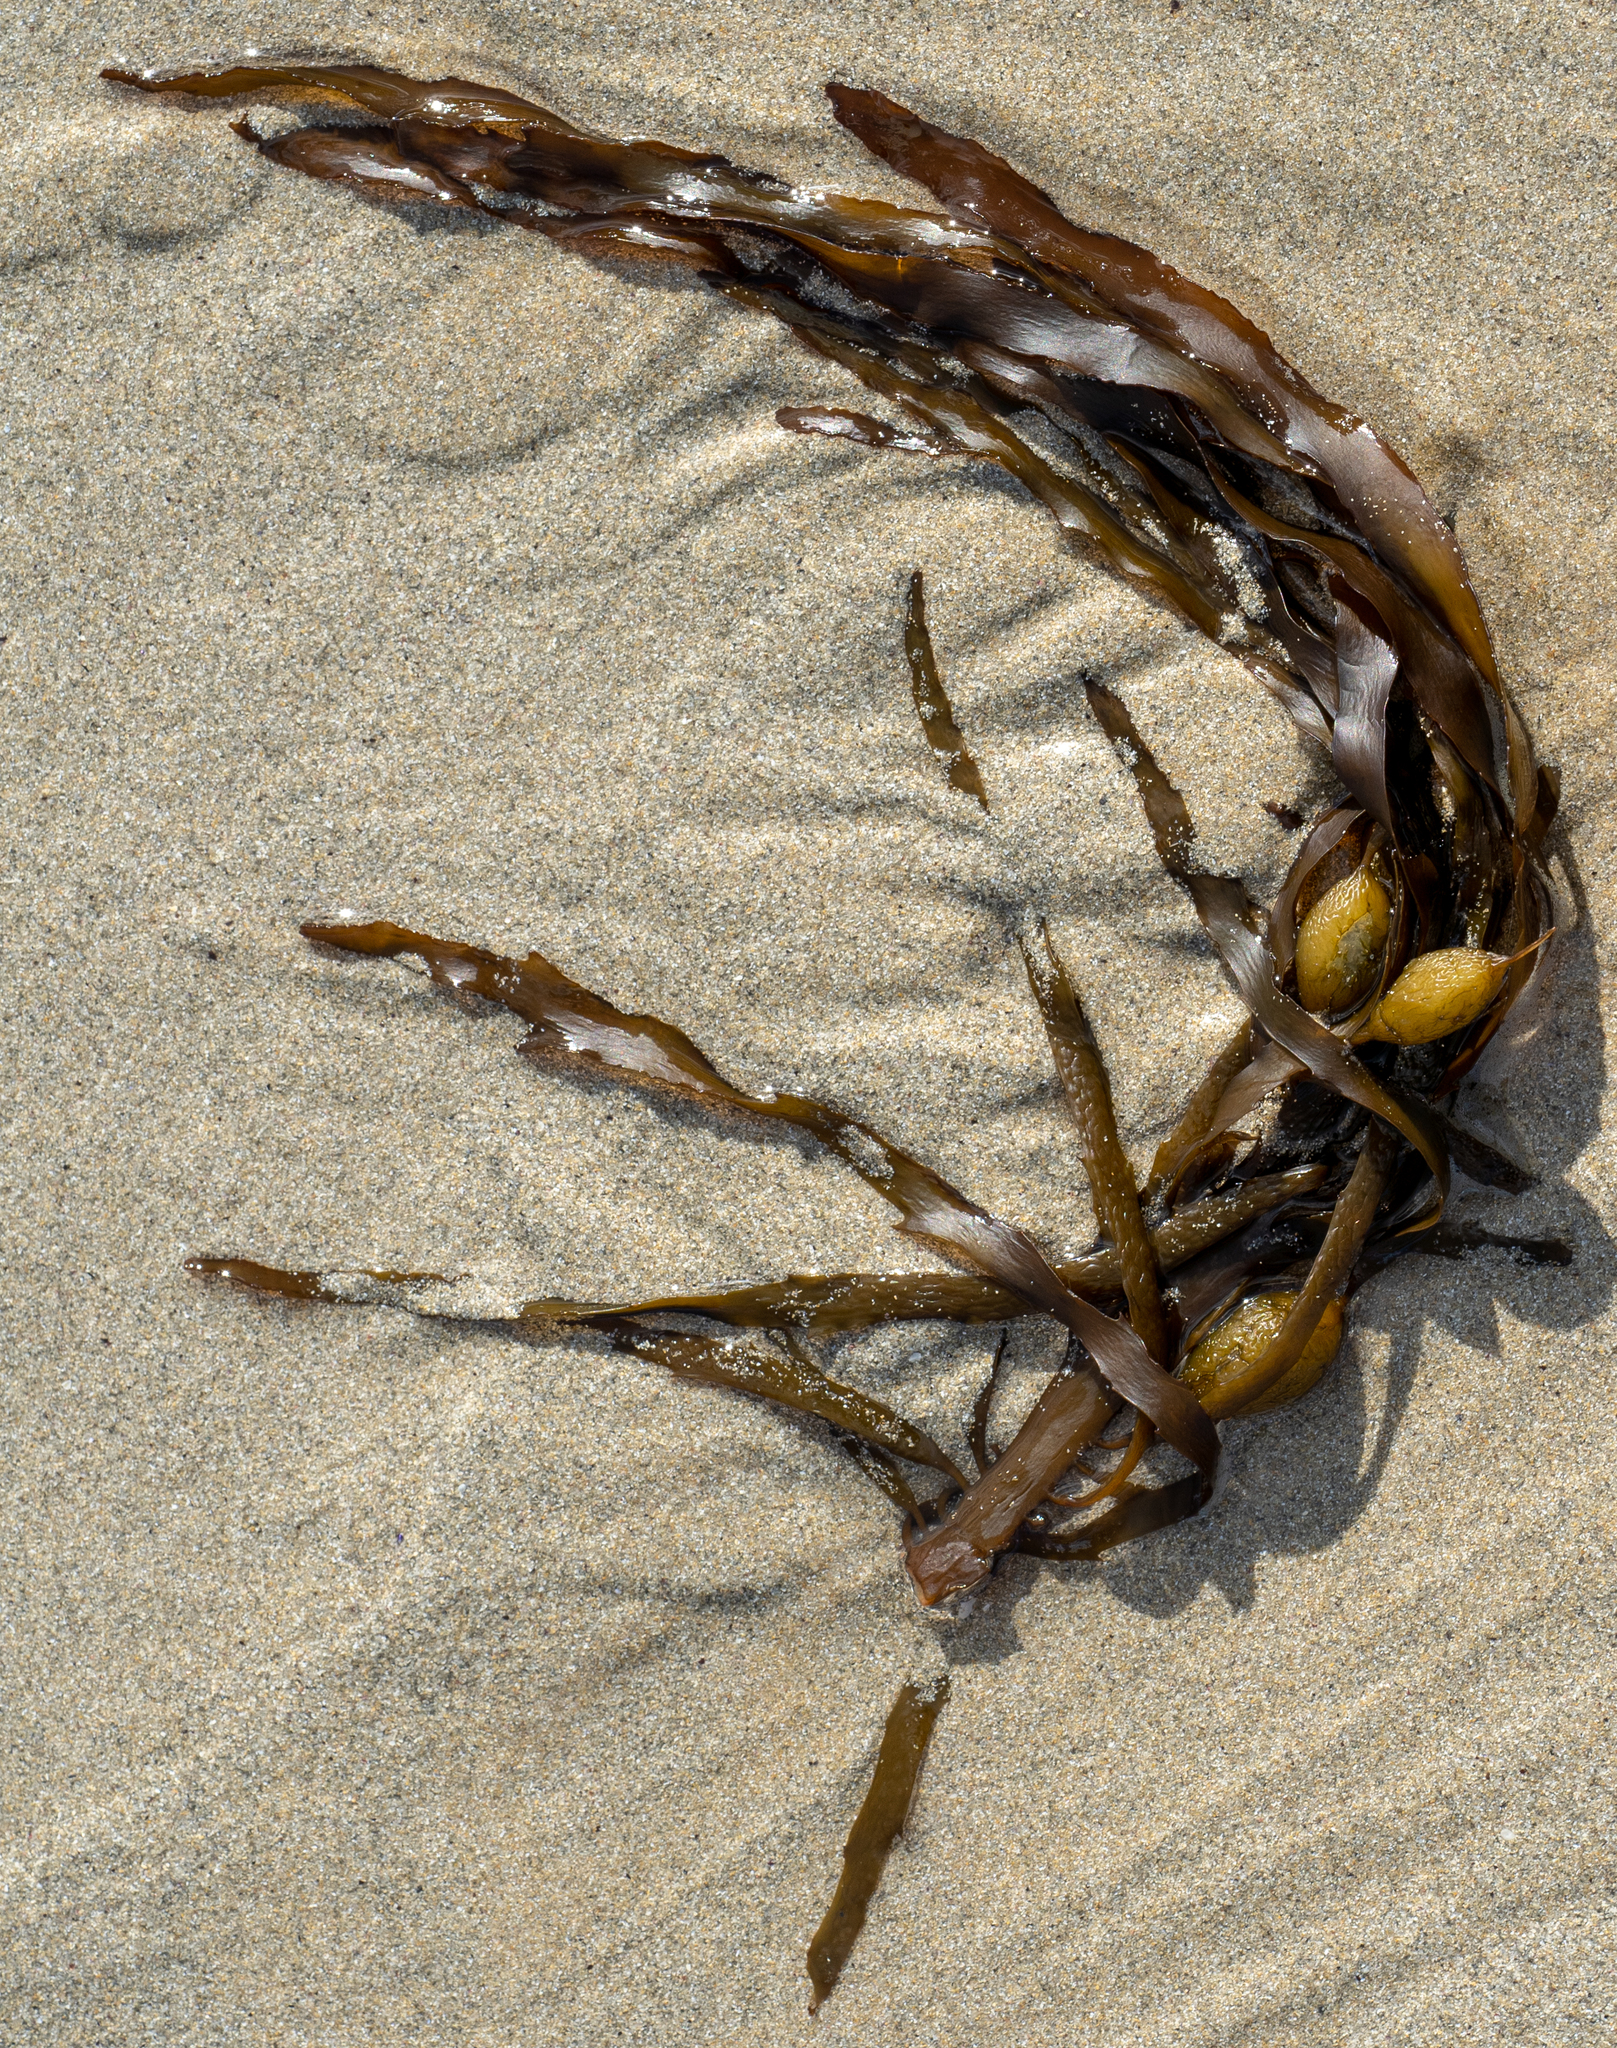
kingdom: Chromista
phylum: Ochrophyta
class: Phaeophyceae
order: Fucales
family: Seirococcaceae
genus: Phyllospora
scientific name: Phyllospora
